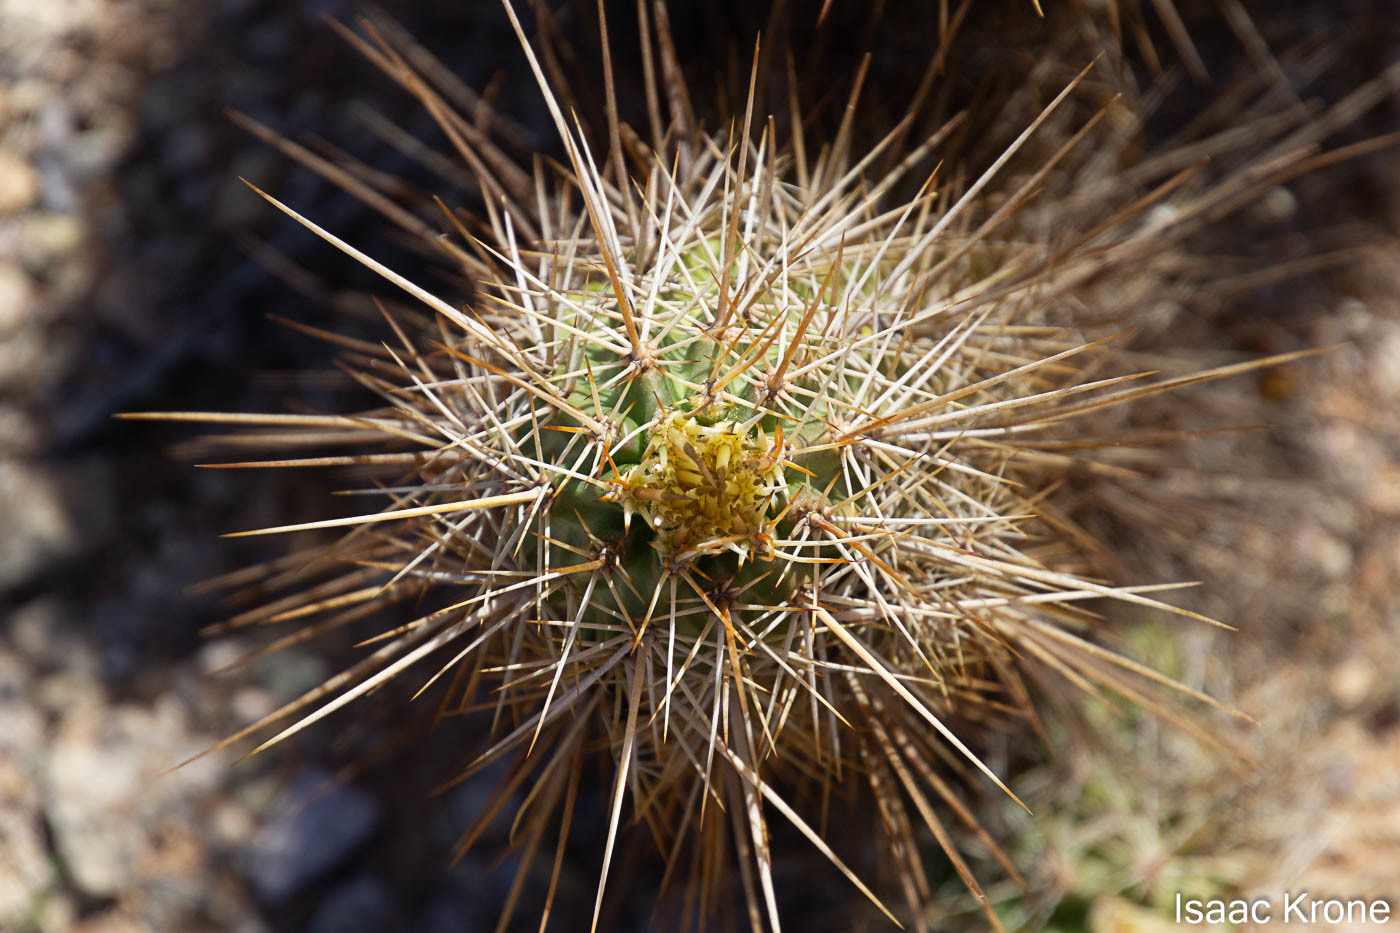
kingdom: Plantae
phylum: Tracheophyta
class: Magnoliopsida
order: Caryophyllales
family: Cactaceae
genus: Echinocereus
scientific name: Echinocereus engelmannii
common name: Engelmann's hedgehog cactus
